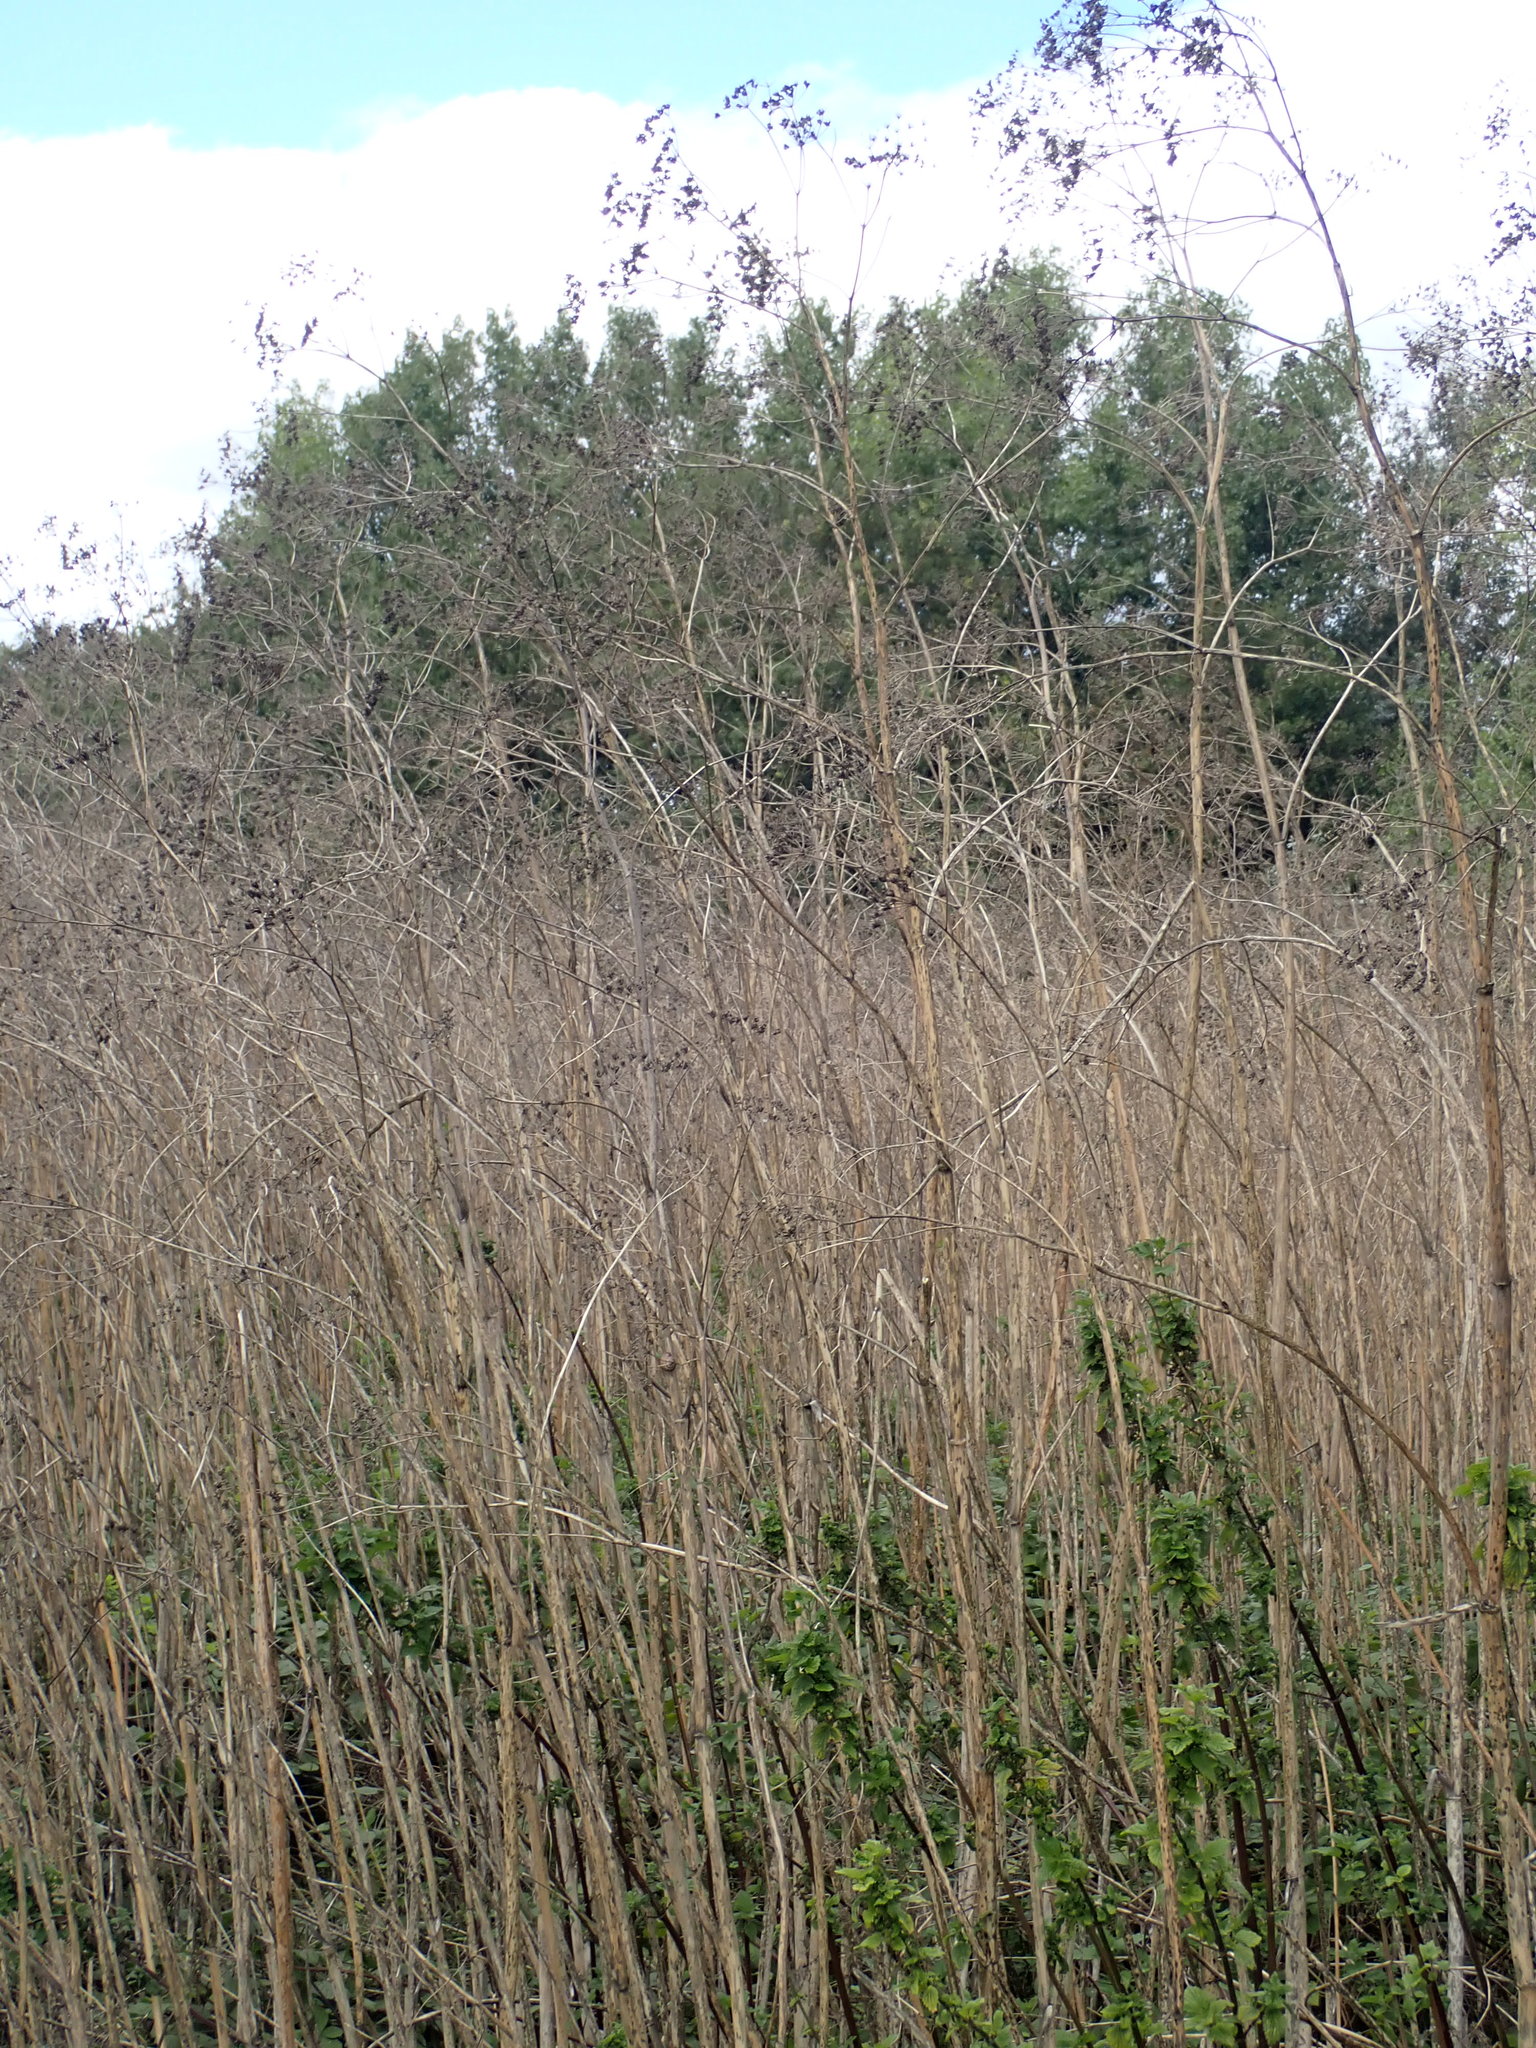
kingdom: Plantae
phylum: Tracheophyta
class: Magnoliopsida
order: Apiales
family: Apiaceae
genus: Conium
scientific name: Conium maculatum
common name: Hemlock
